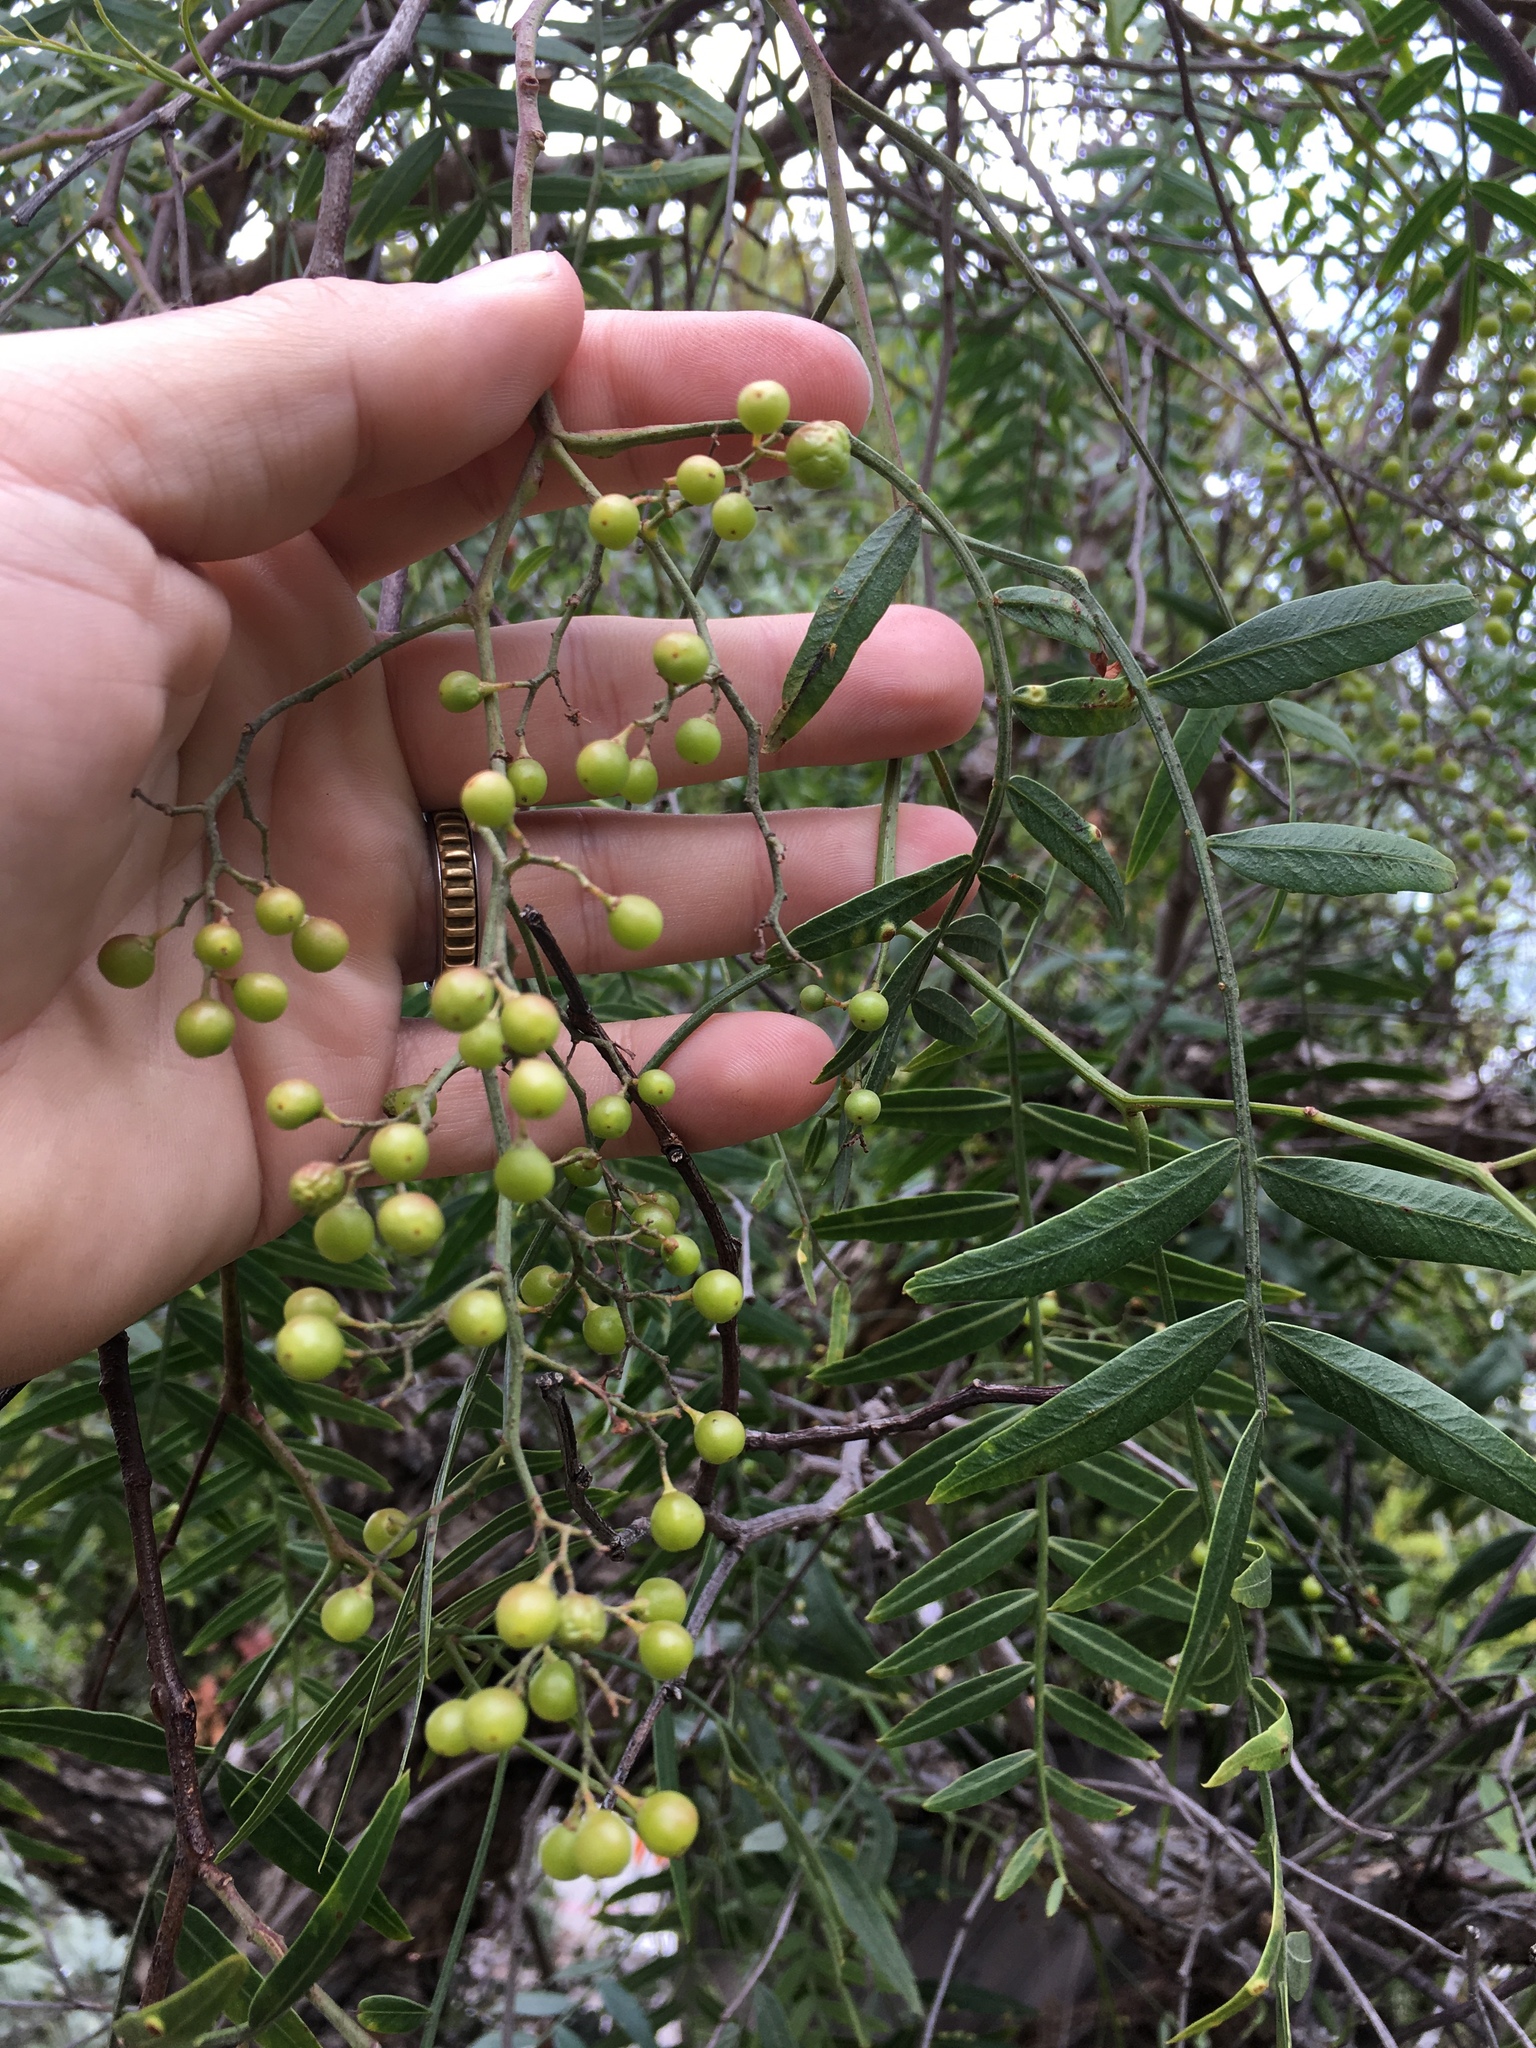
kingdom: Plantae
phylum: Tracheophyta
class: Magnoliopsida
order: Sapindales
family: Anacardiaceae
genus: Schinus
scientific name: Schinus molle
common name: Peruvian peppertree
